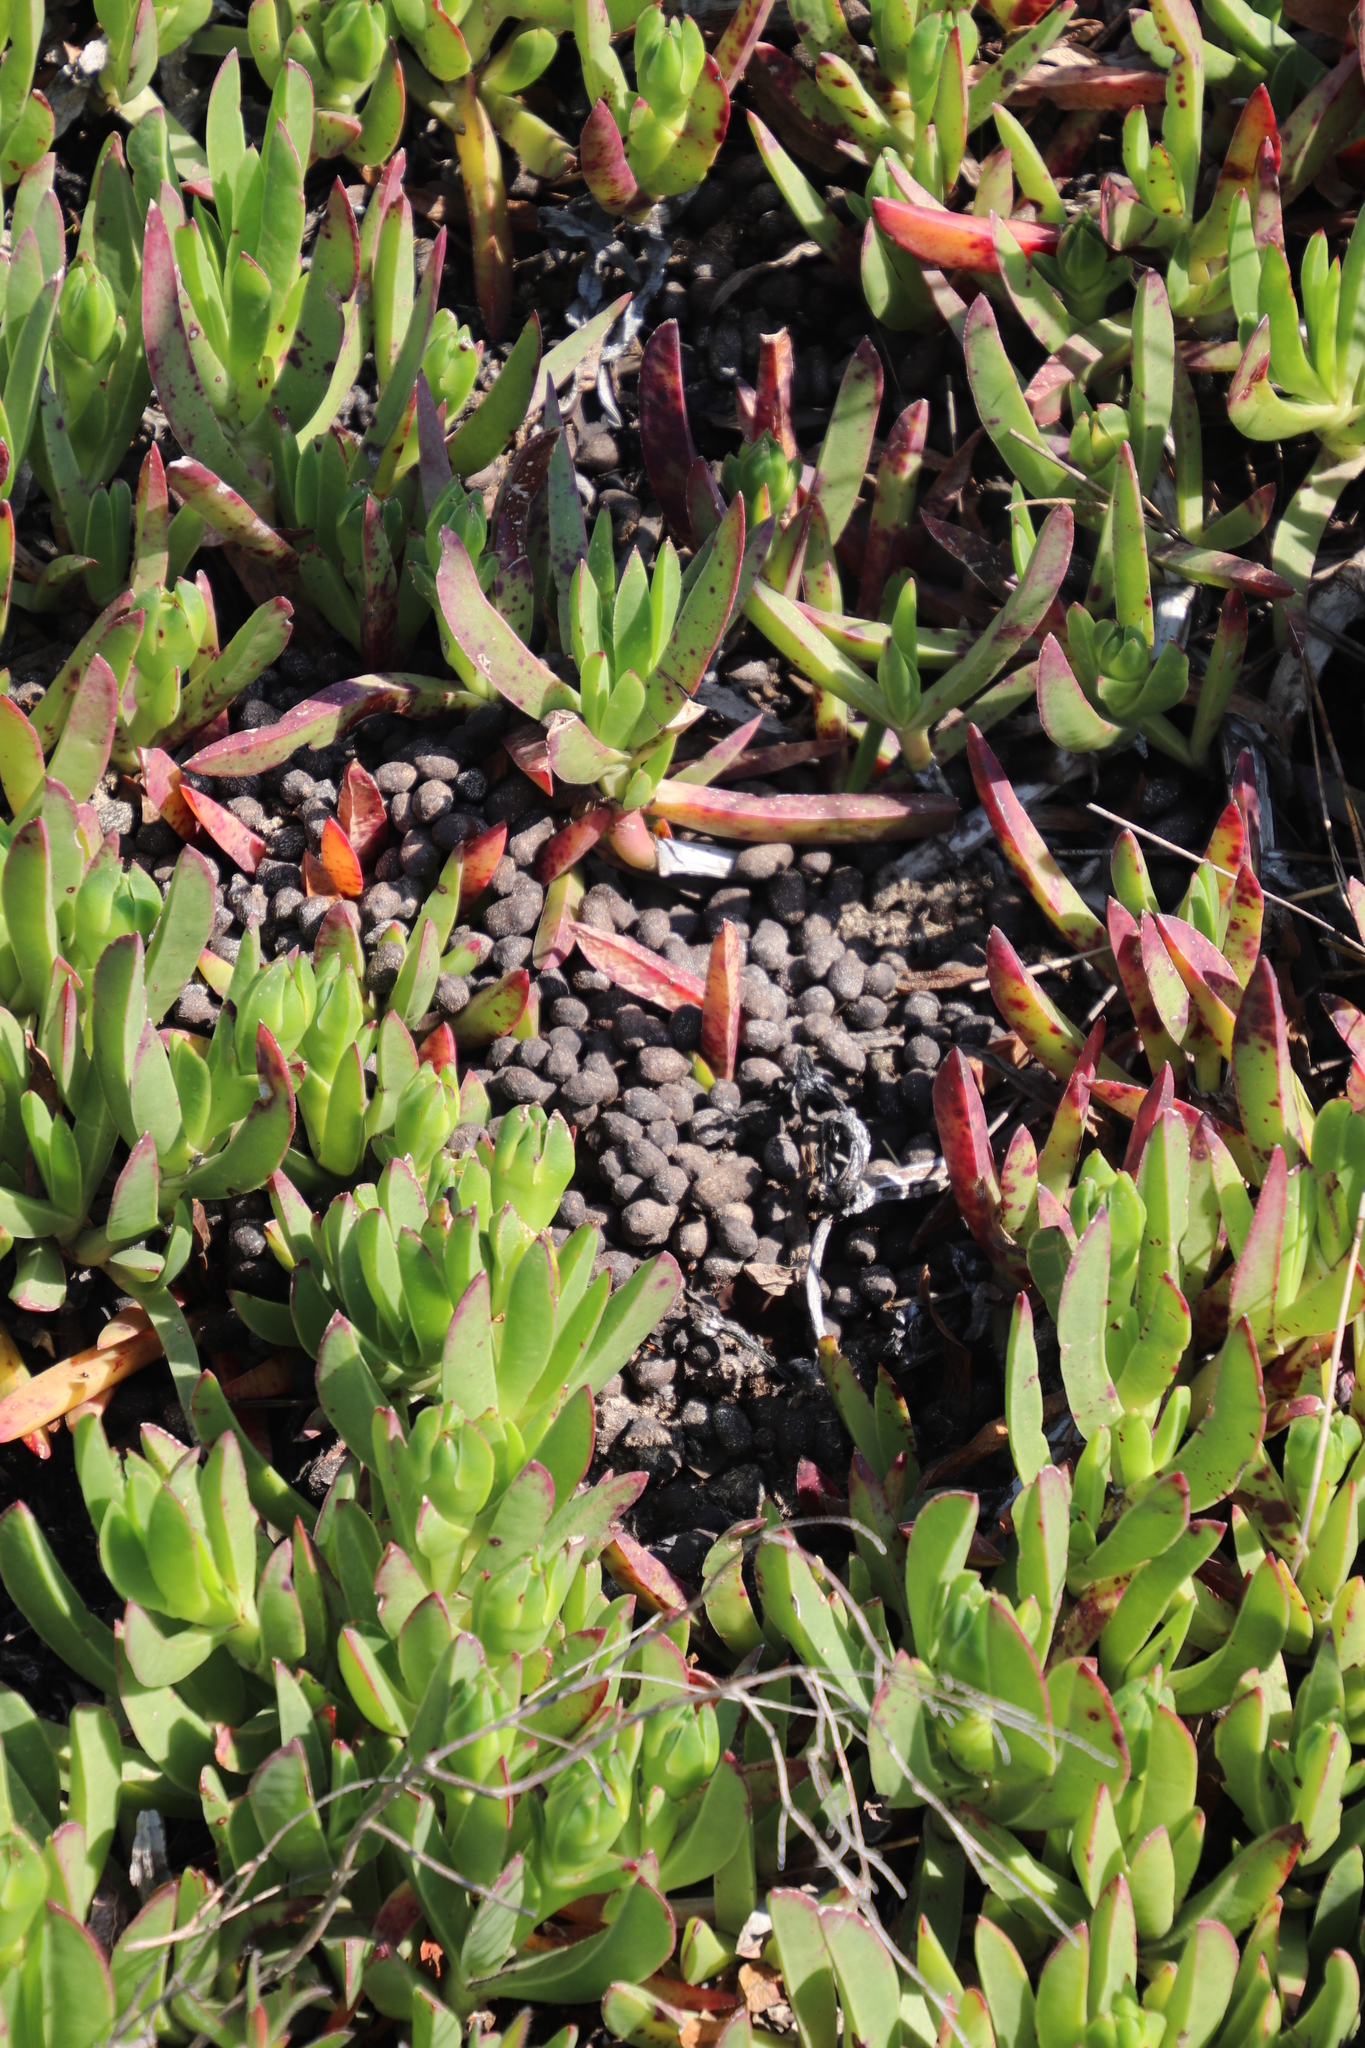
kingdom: Animalia
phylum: Chordata
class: Mammalia
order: Artiodactyla
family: Bovidae
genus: Oreotragus
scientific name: Oreotragus oreotragus
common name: Klipspringer
